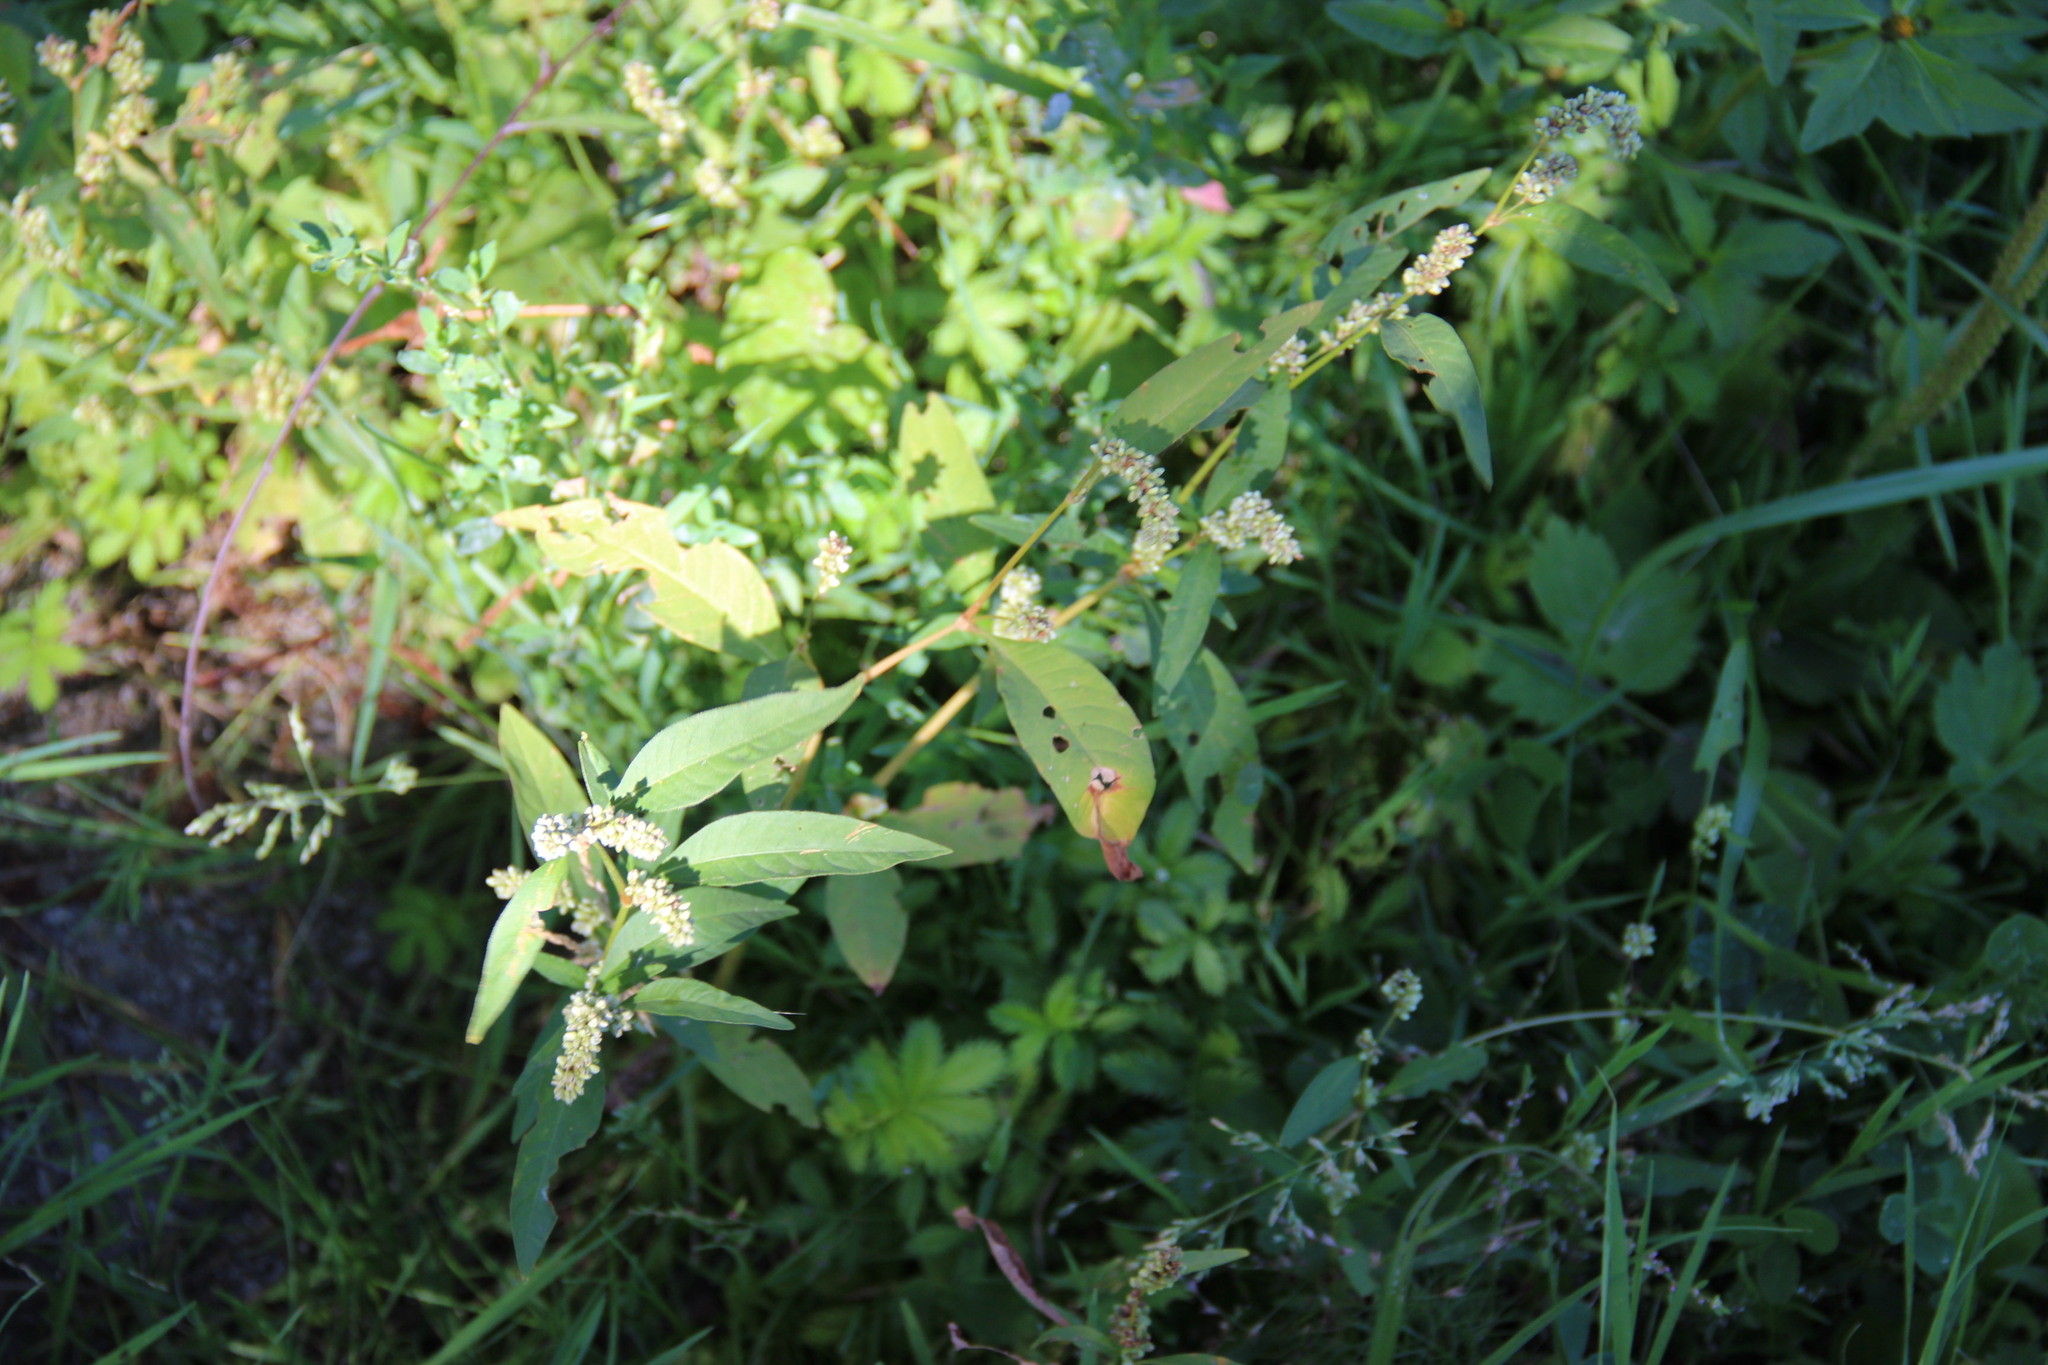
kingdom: Plantae
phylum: Tracheophyta
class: Magnoliopsida
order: Caryophyllales
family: Polygonaceae
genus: Persicaria
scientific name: Persicaria lapathifolia
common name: Curlytop knotweed
